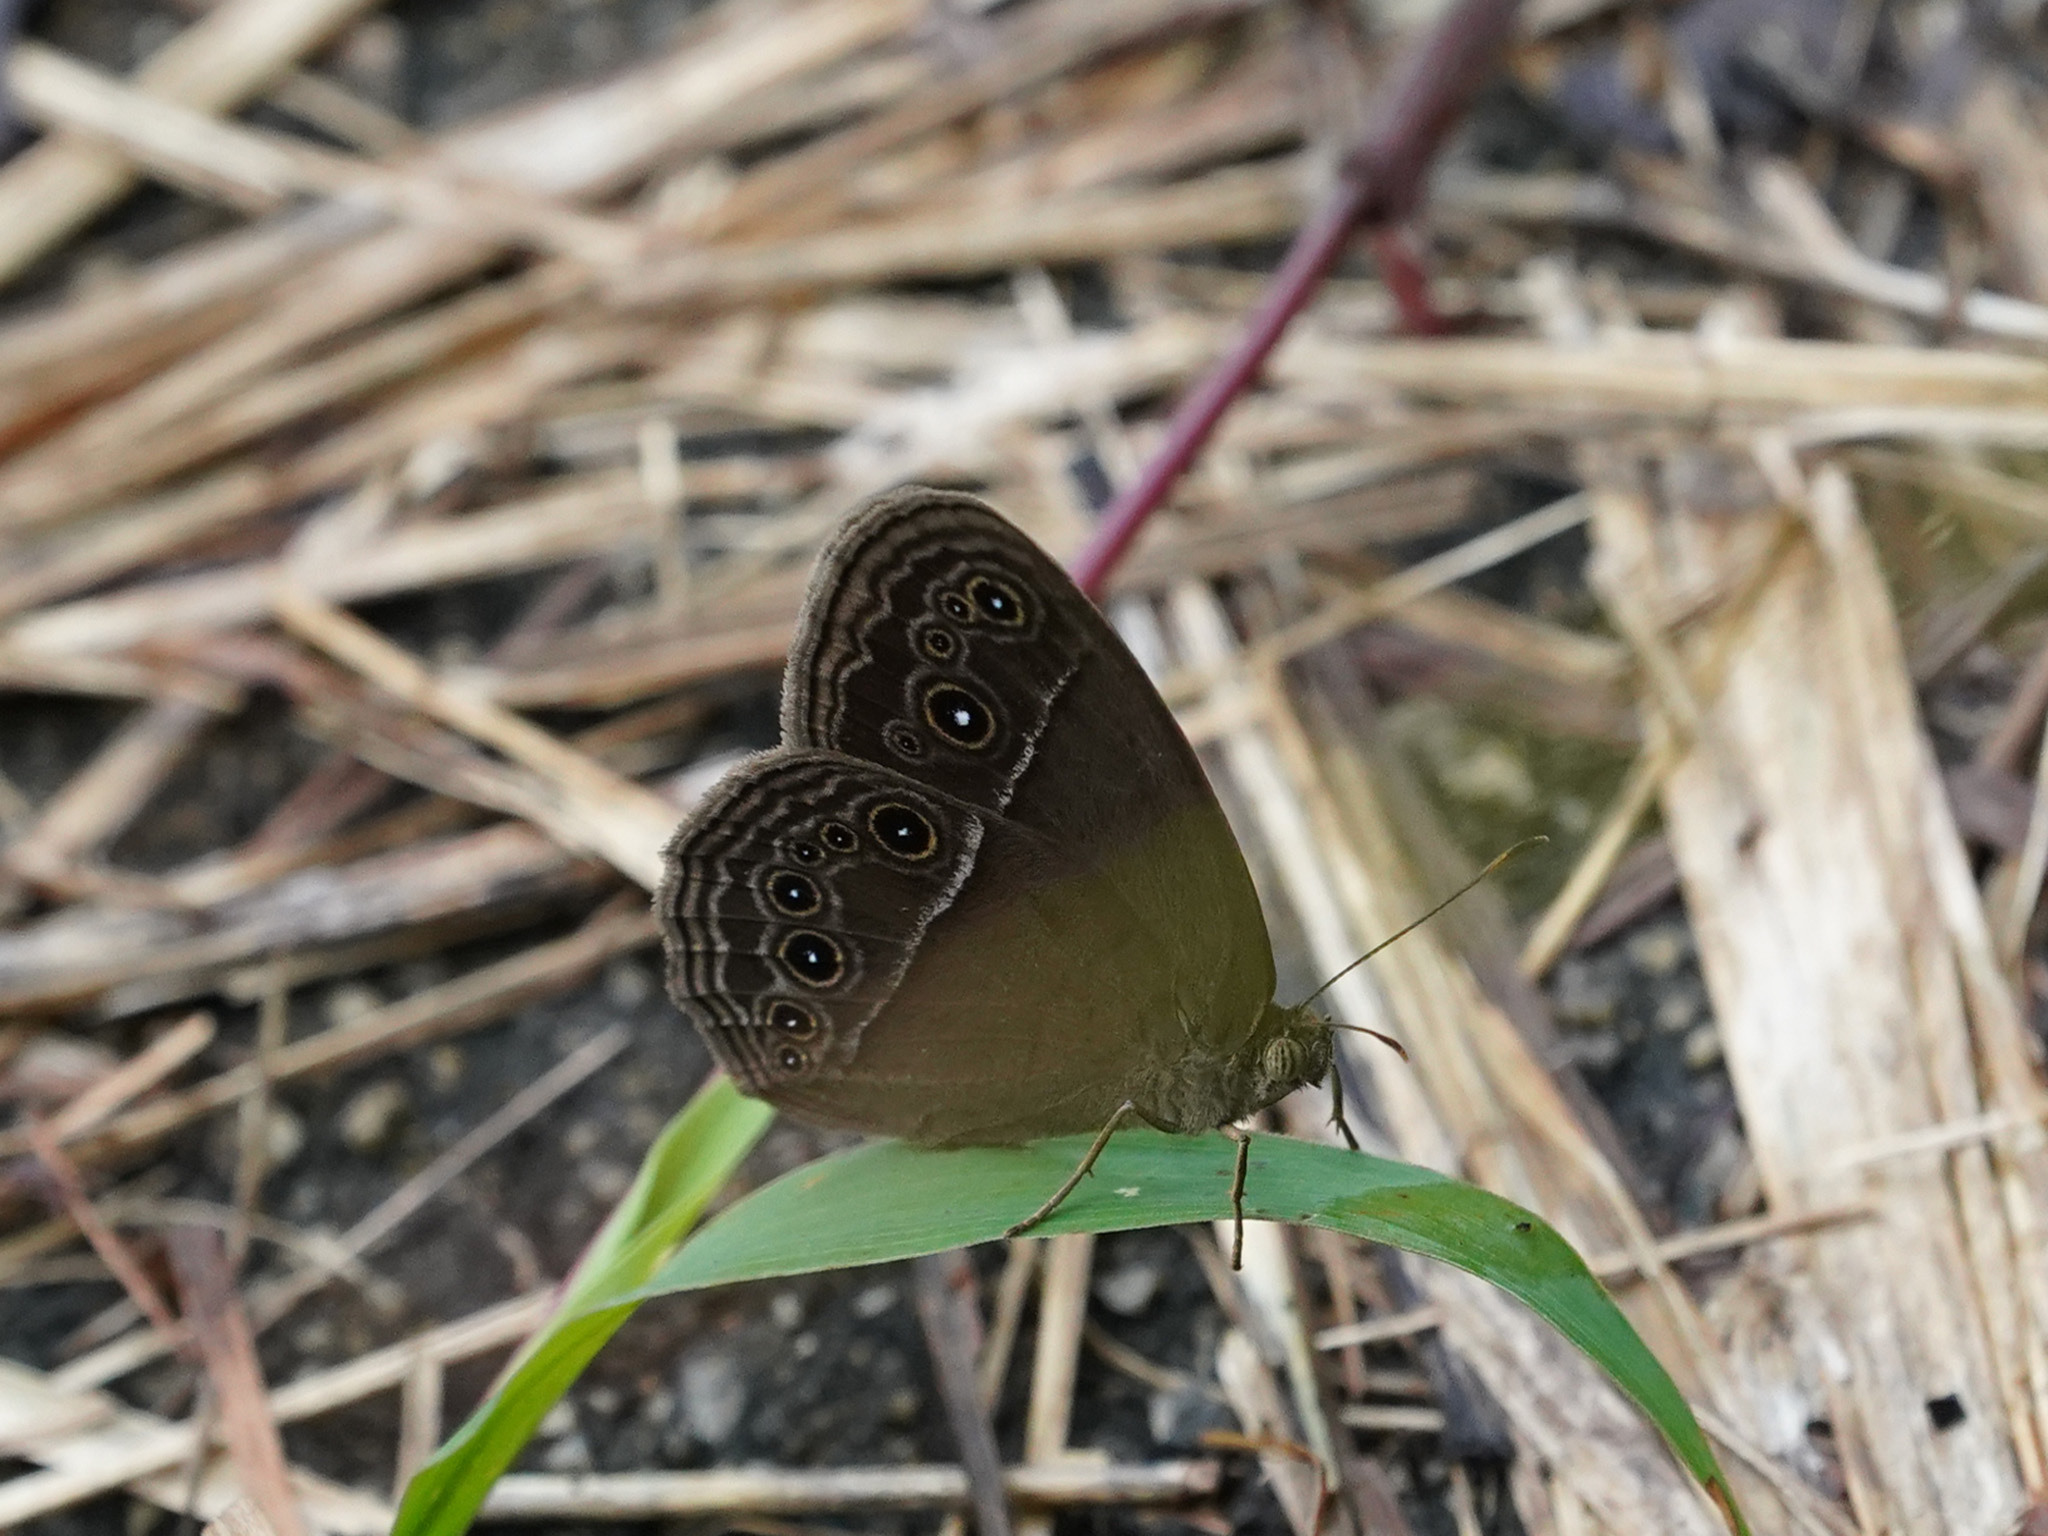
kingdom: Animalia
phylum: Arthropoda
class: Insecta
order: Lepidoptera
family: Nymphalidae
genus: Mycalesis
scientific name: Mycalesis perseus
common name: Dingy bushbrown
